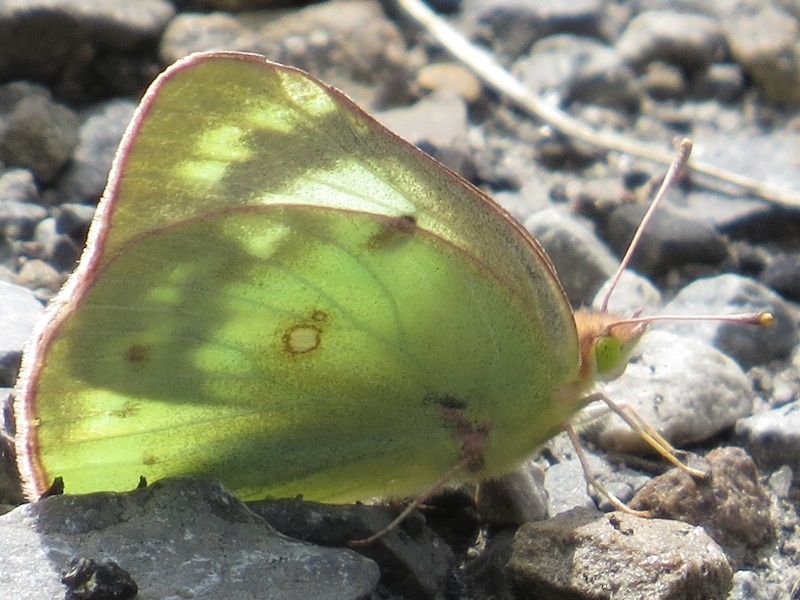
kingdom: Animalia
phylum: Arthropoda
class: Insecta
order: Lepidoptera
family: Pieridae
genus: Colias
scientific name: Colias philodice
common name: Clouded sulphur
